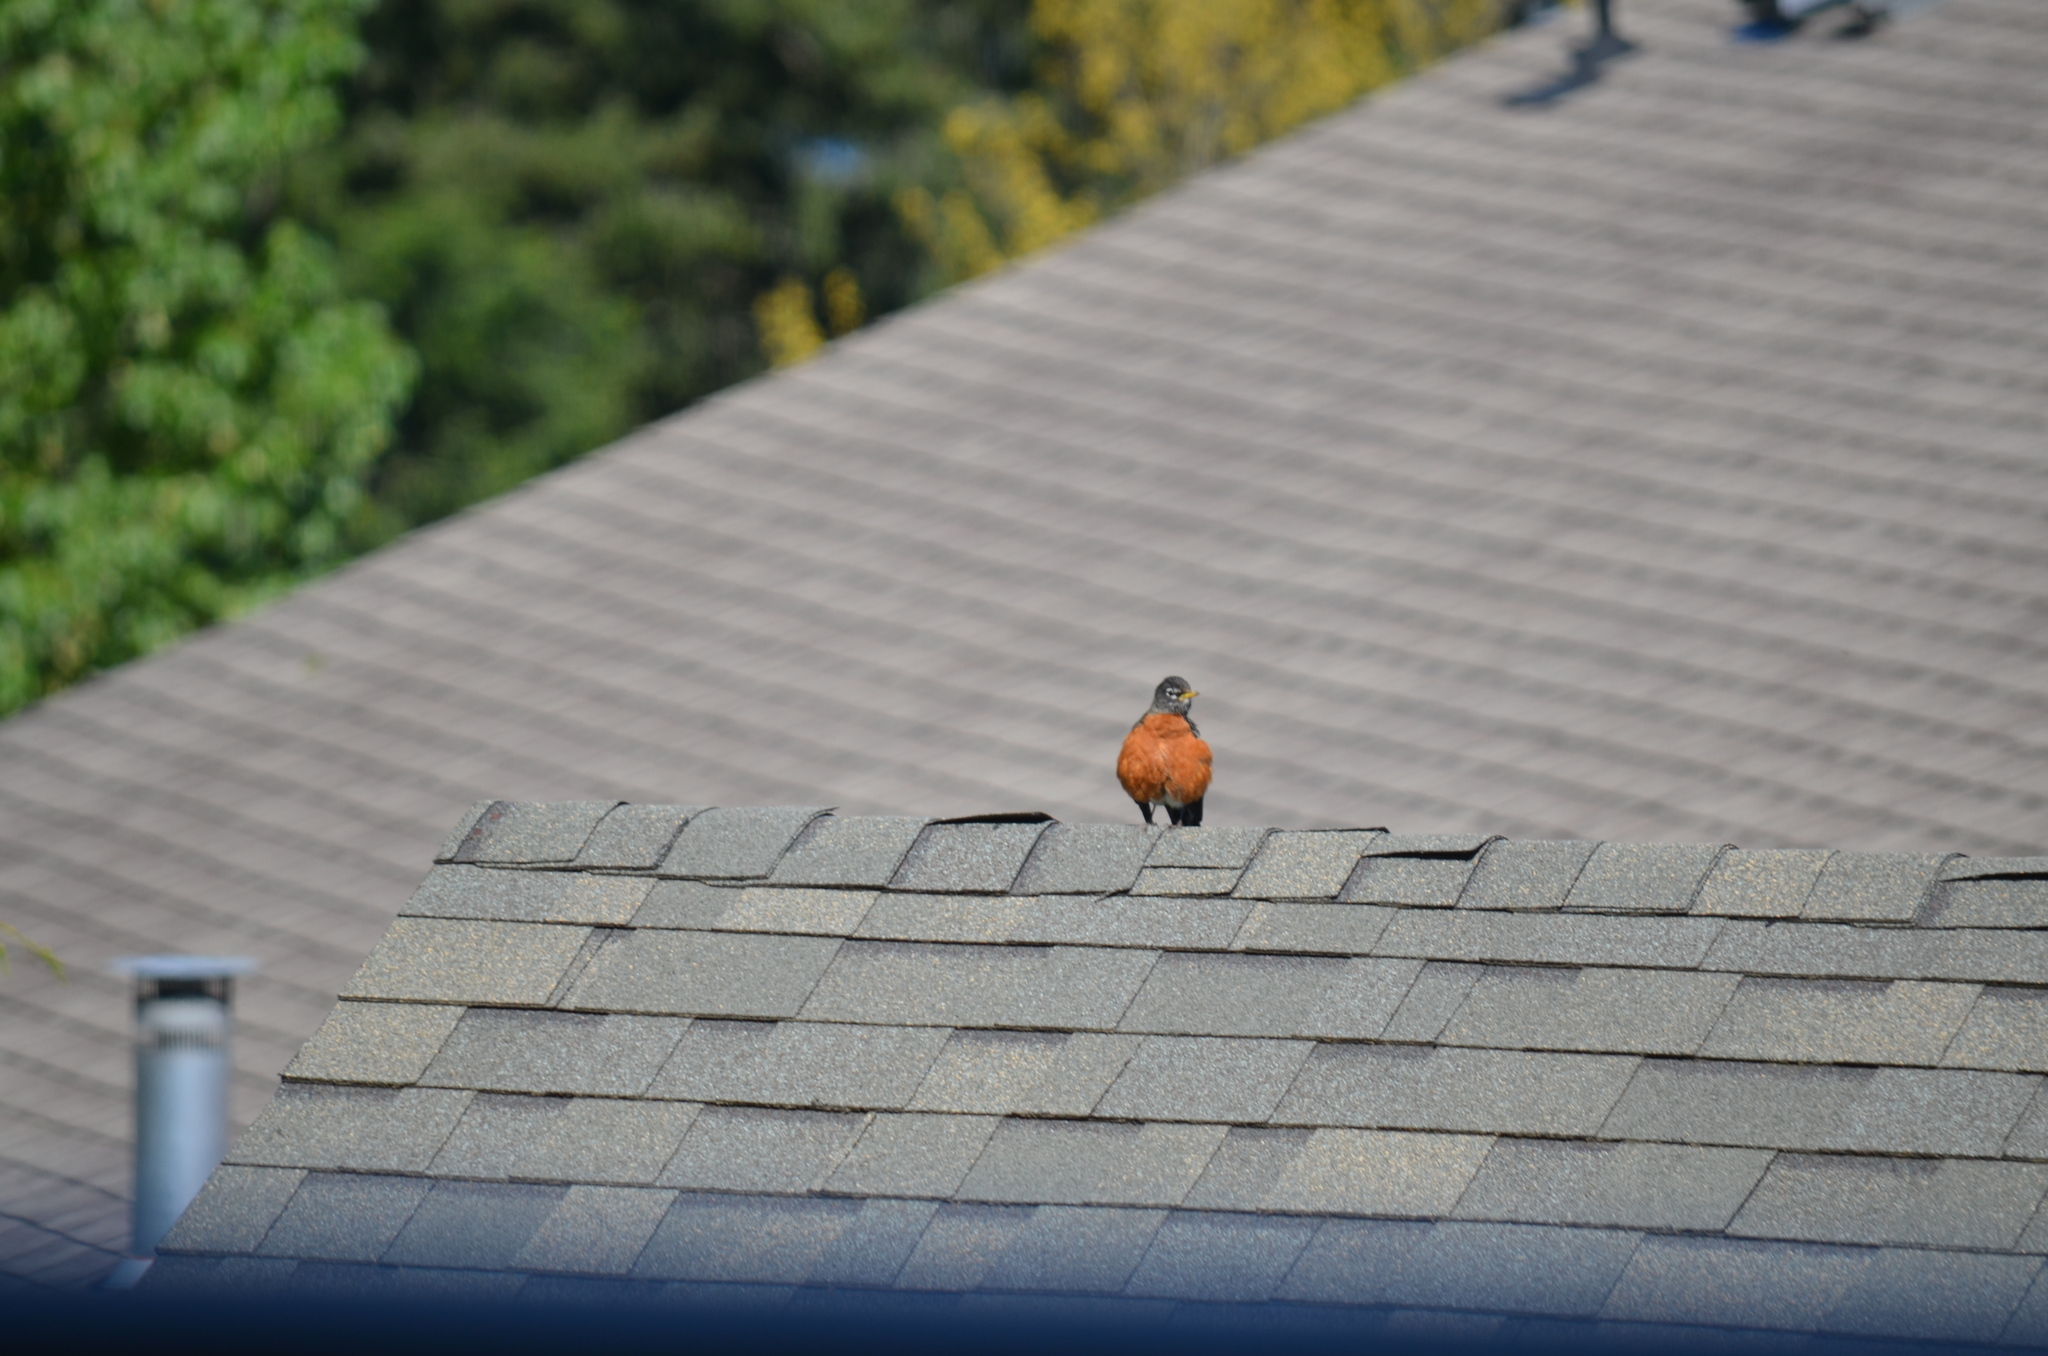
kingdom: Animalia
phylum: Chordata
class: Aves
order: Passeriformes
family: Turdidae
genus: Turdus
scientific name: Turdus migratorius
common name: American robin
